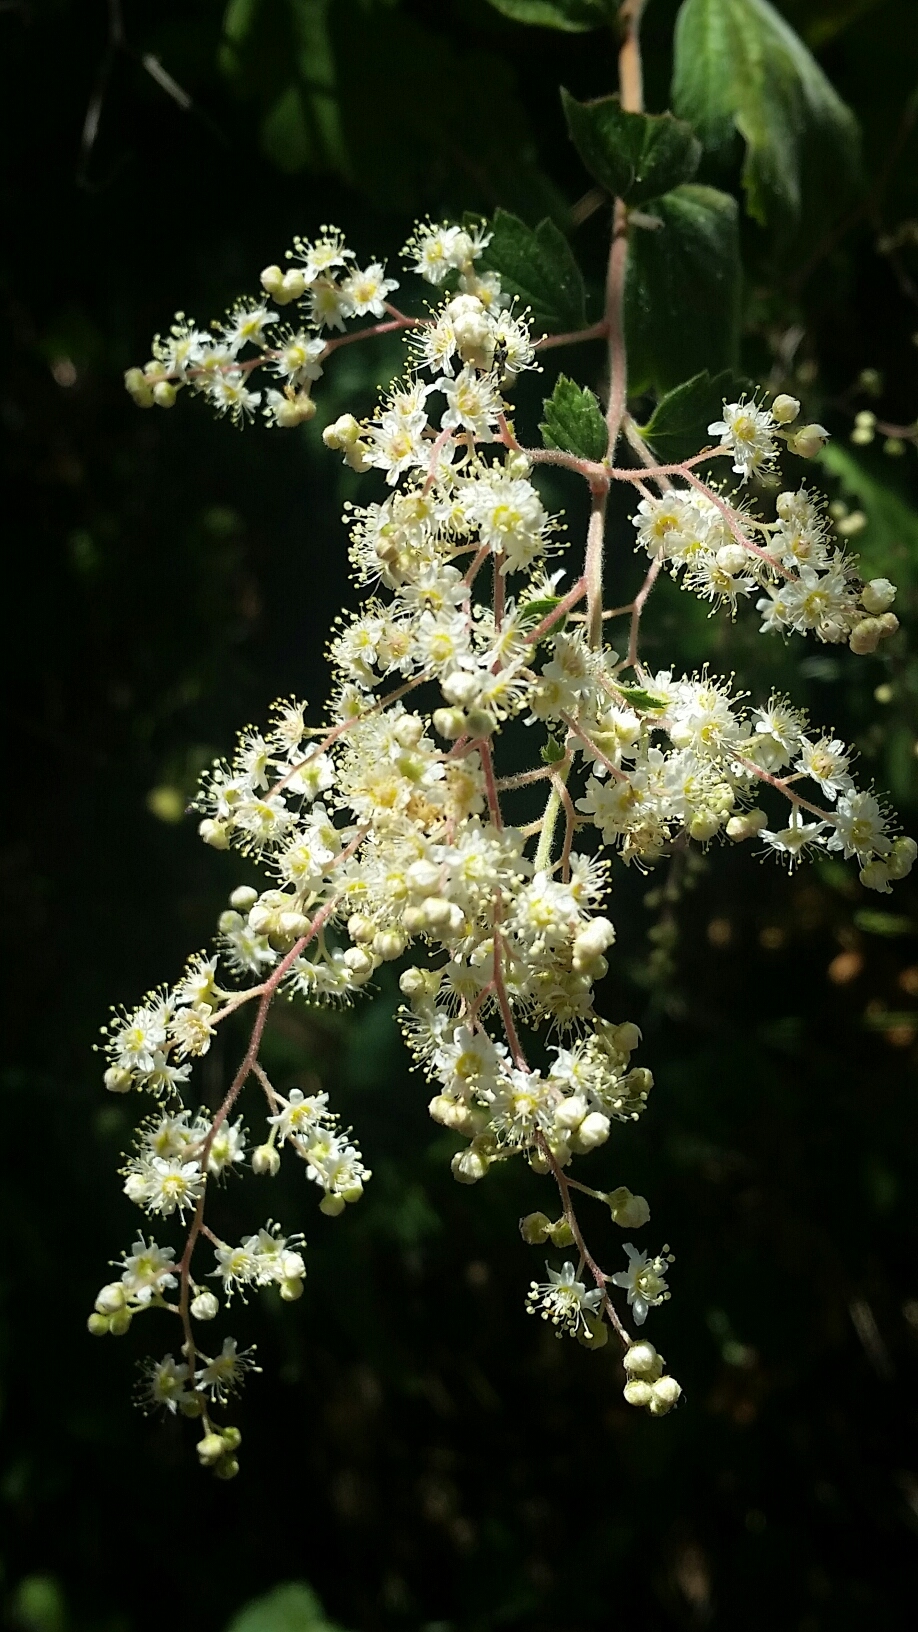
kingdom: Plantae
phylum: Tracheophyta
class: Magnoliopsida
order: Rosales
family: Rosaceae
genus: Holodiscus
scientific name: Holodiscus discolor
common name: Oceanspray
